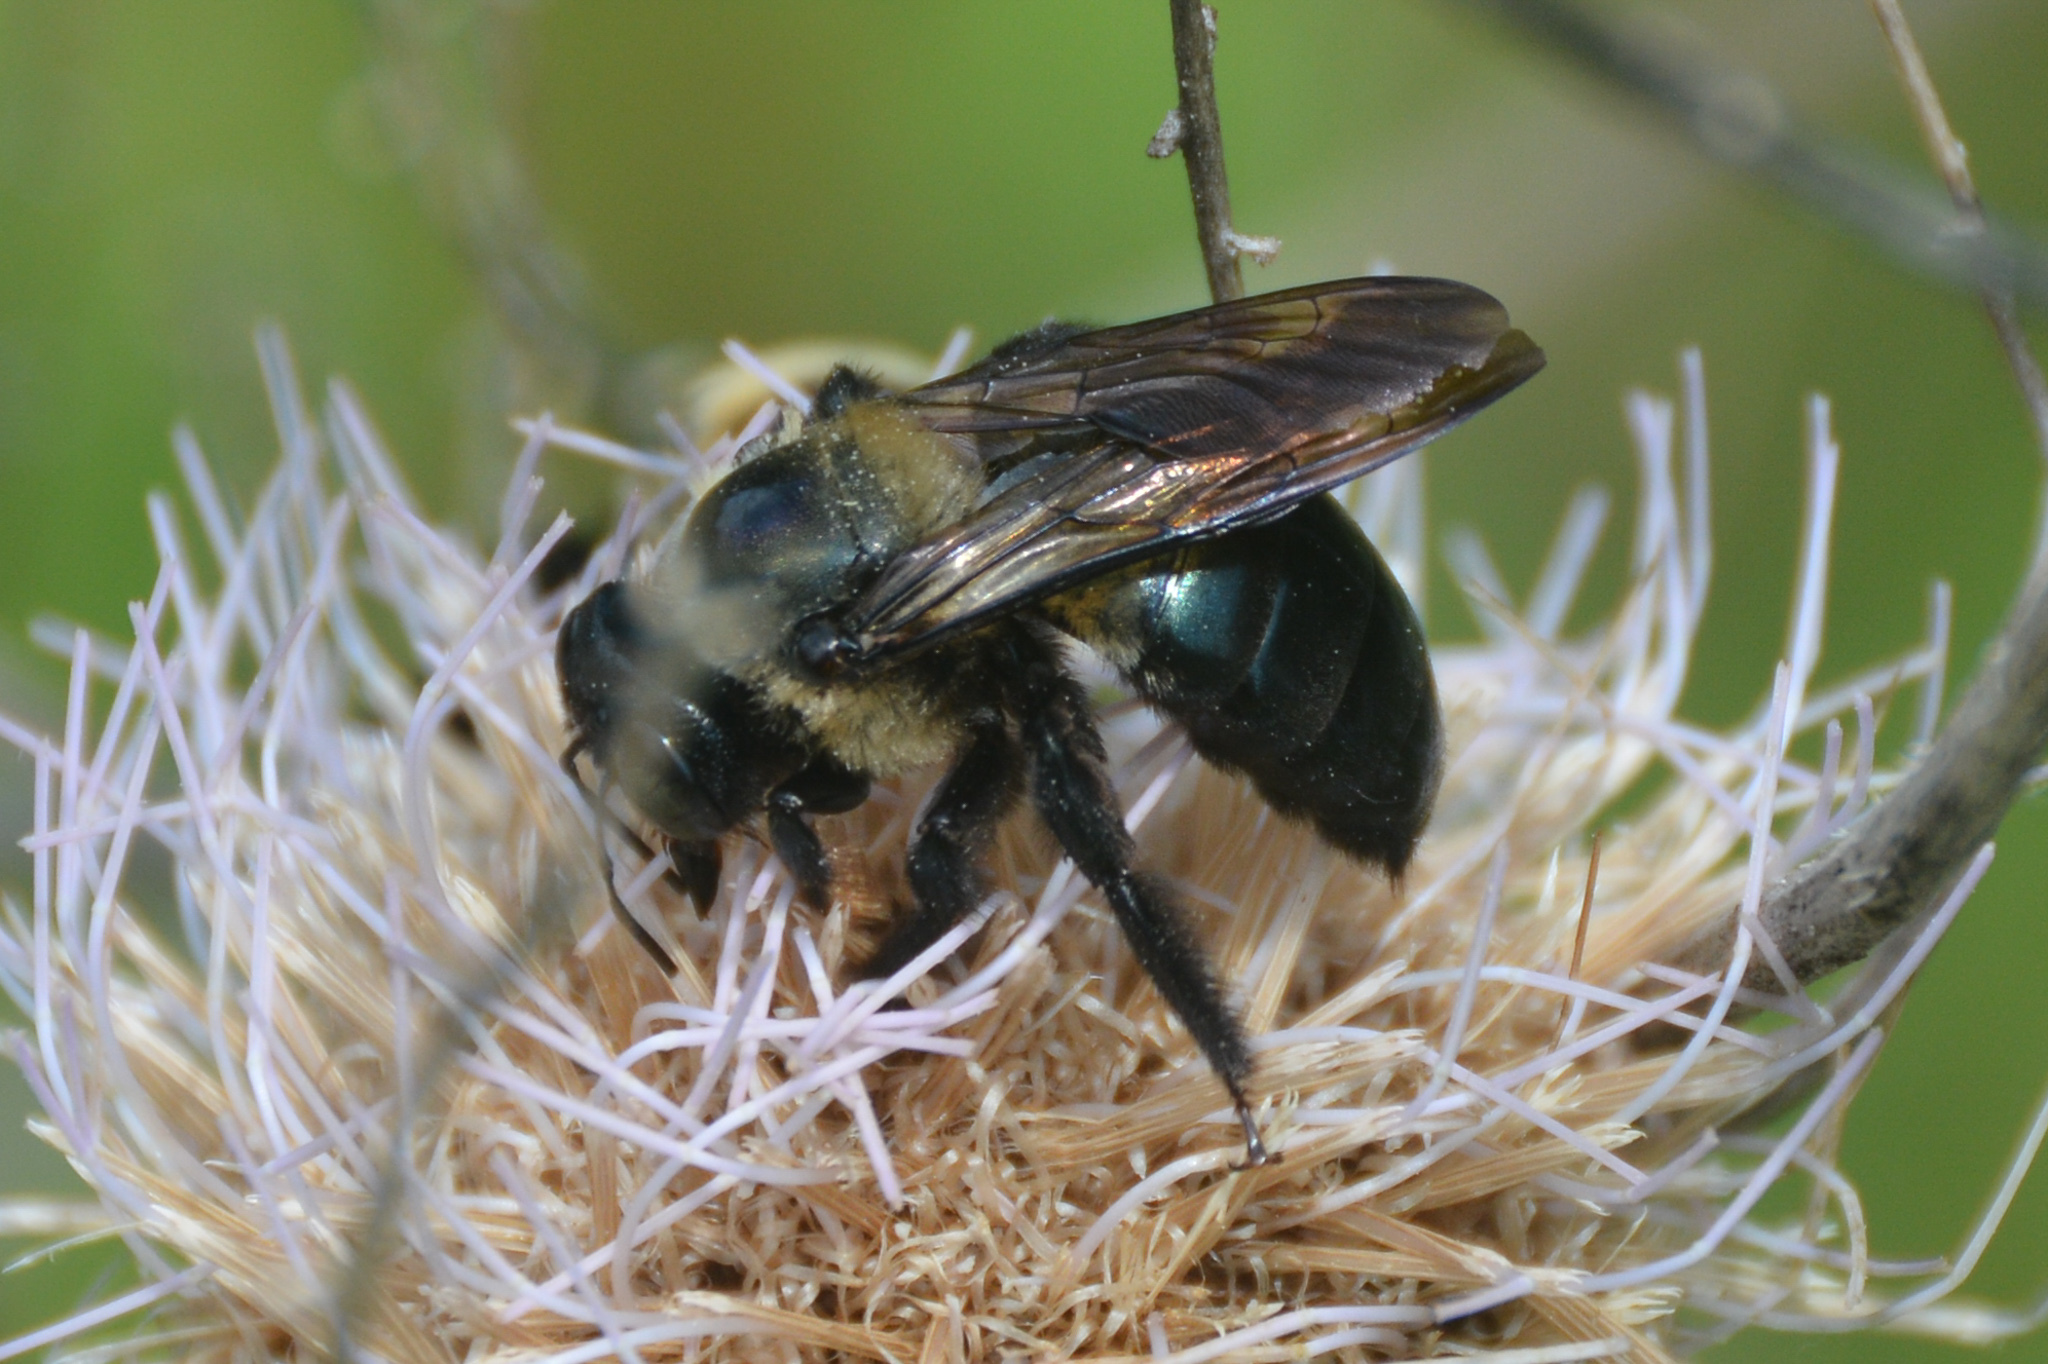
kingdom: Animalia
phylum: Arthropoda
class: Insecta
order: Hymenoptera
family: Apidae
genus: Xylocopa
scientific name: Xylocopa virginica
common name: Carpenter bee
